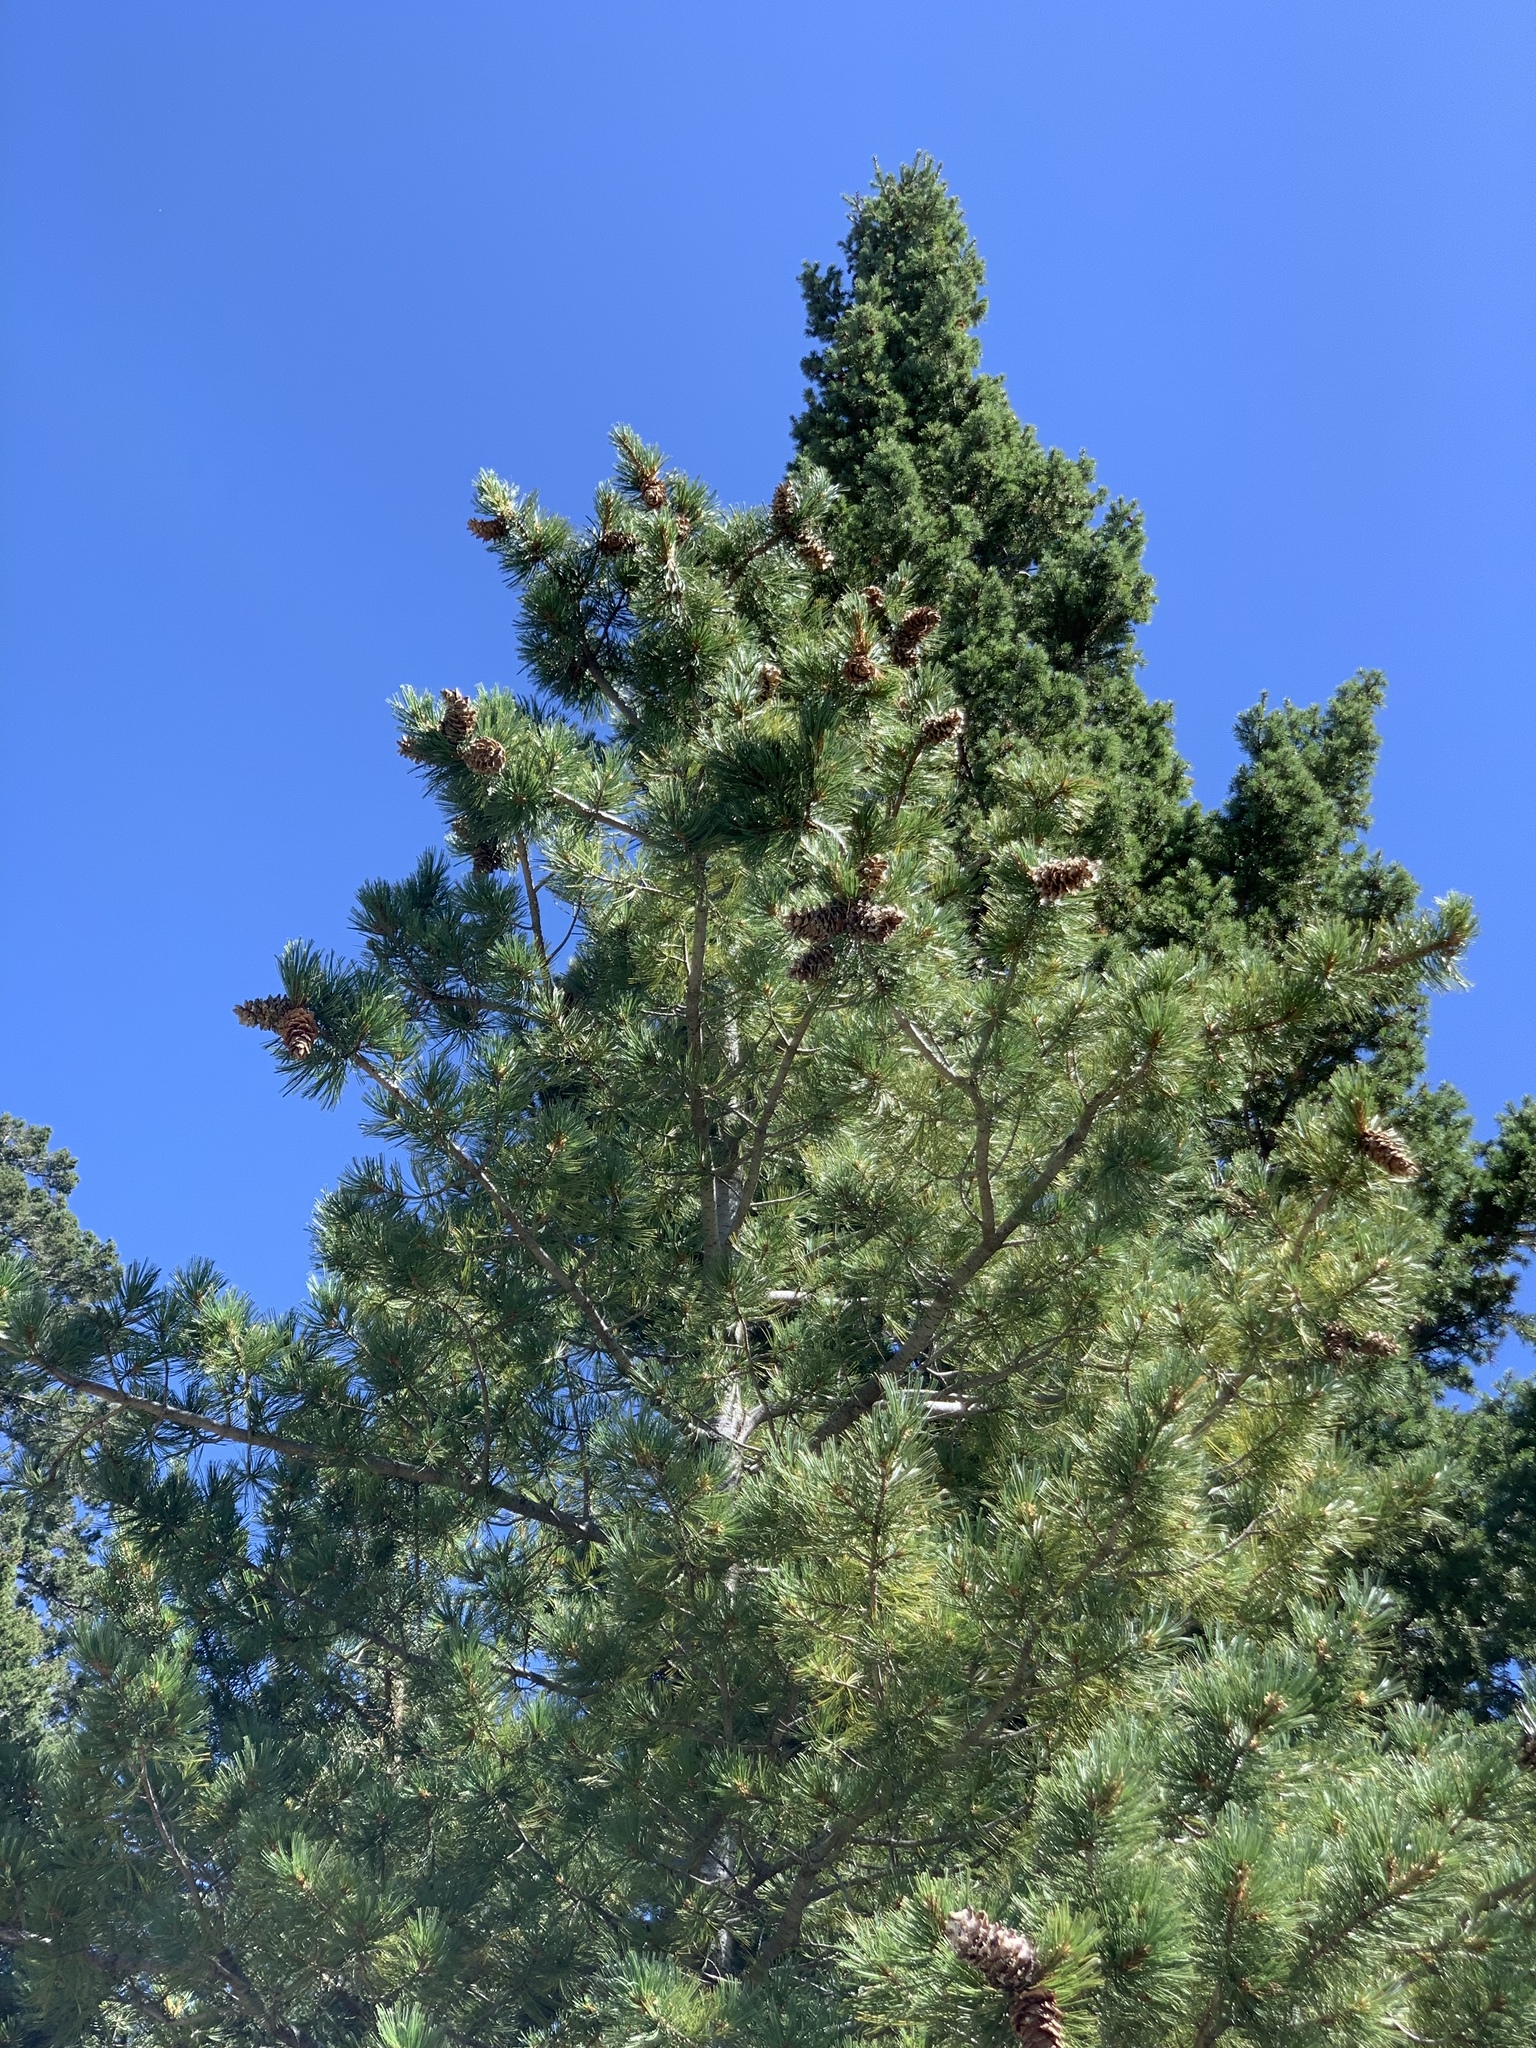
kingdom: Plantae
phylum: Tracheophyta
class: Pinopsida
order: Pinales
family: Pinaceae
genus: Pinus
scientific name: Pinus strobiformis
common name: Southwestern white pine
